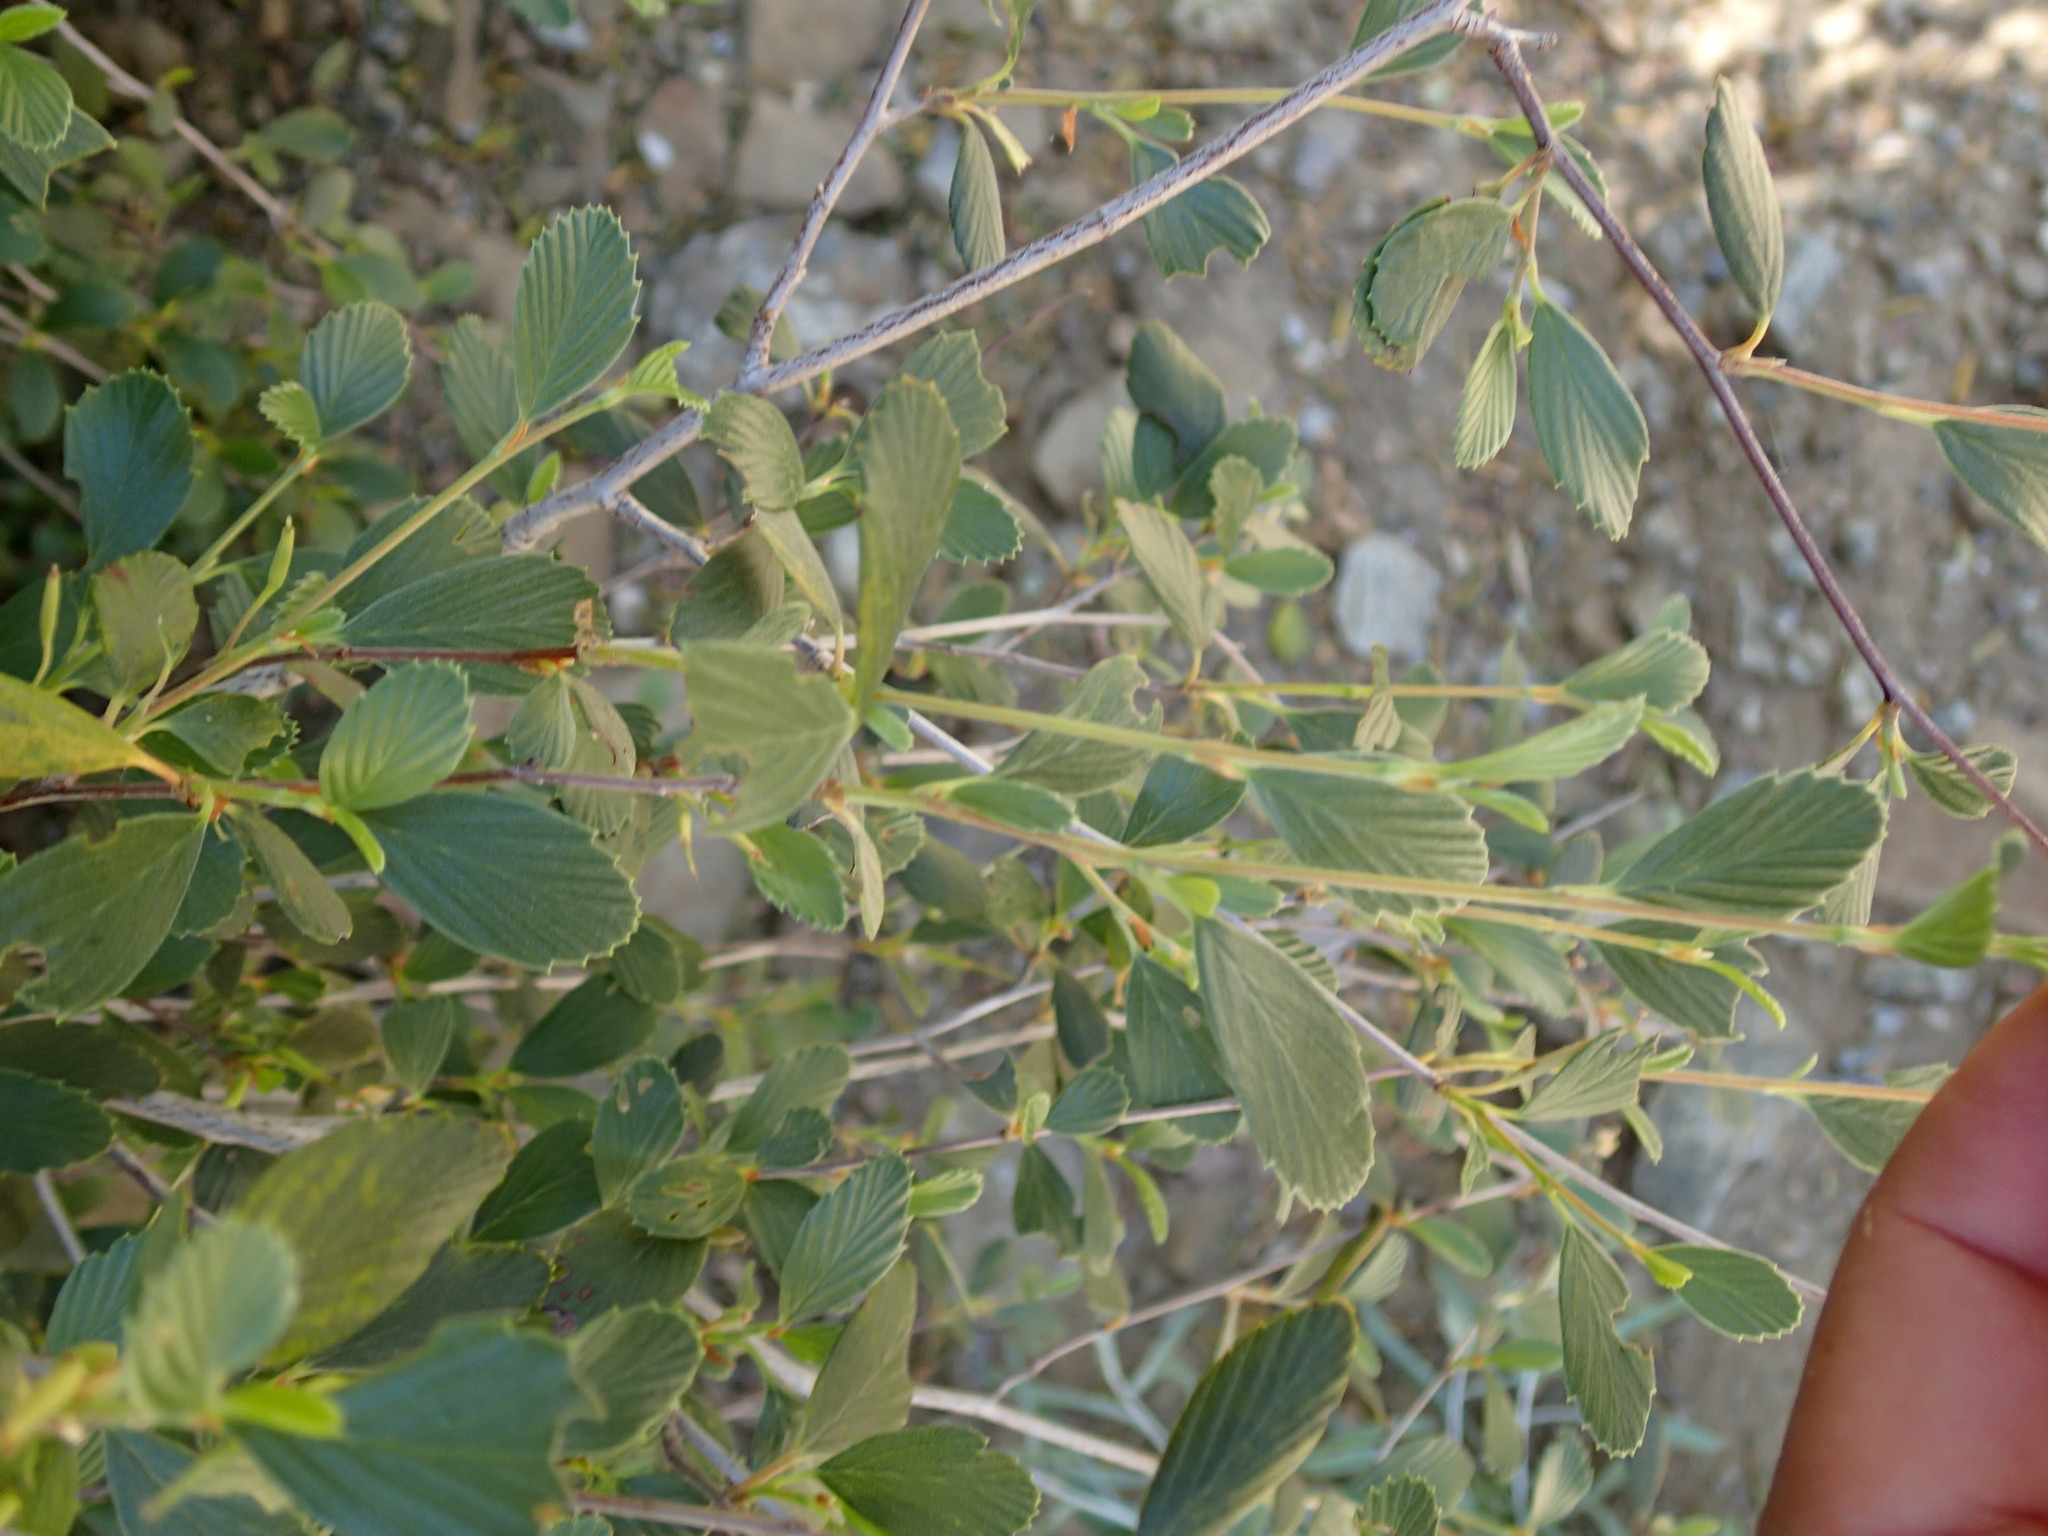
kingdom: Plantae
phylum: Tracheophyta
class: Magnoliopsida
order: Rosales
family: Rosaceae
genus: Cercocarpus
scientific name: Cercocarpus betuloides
